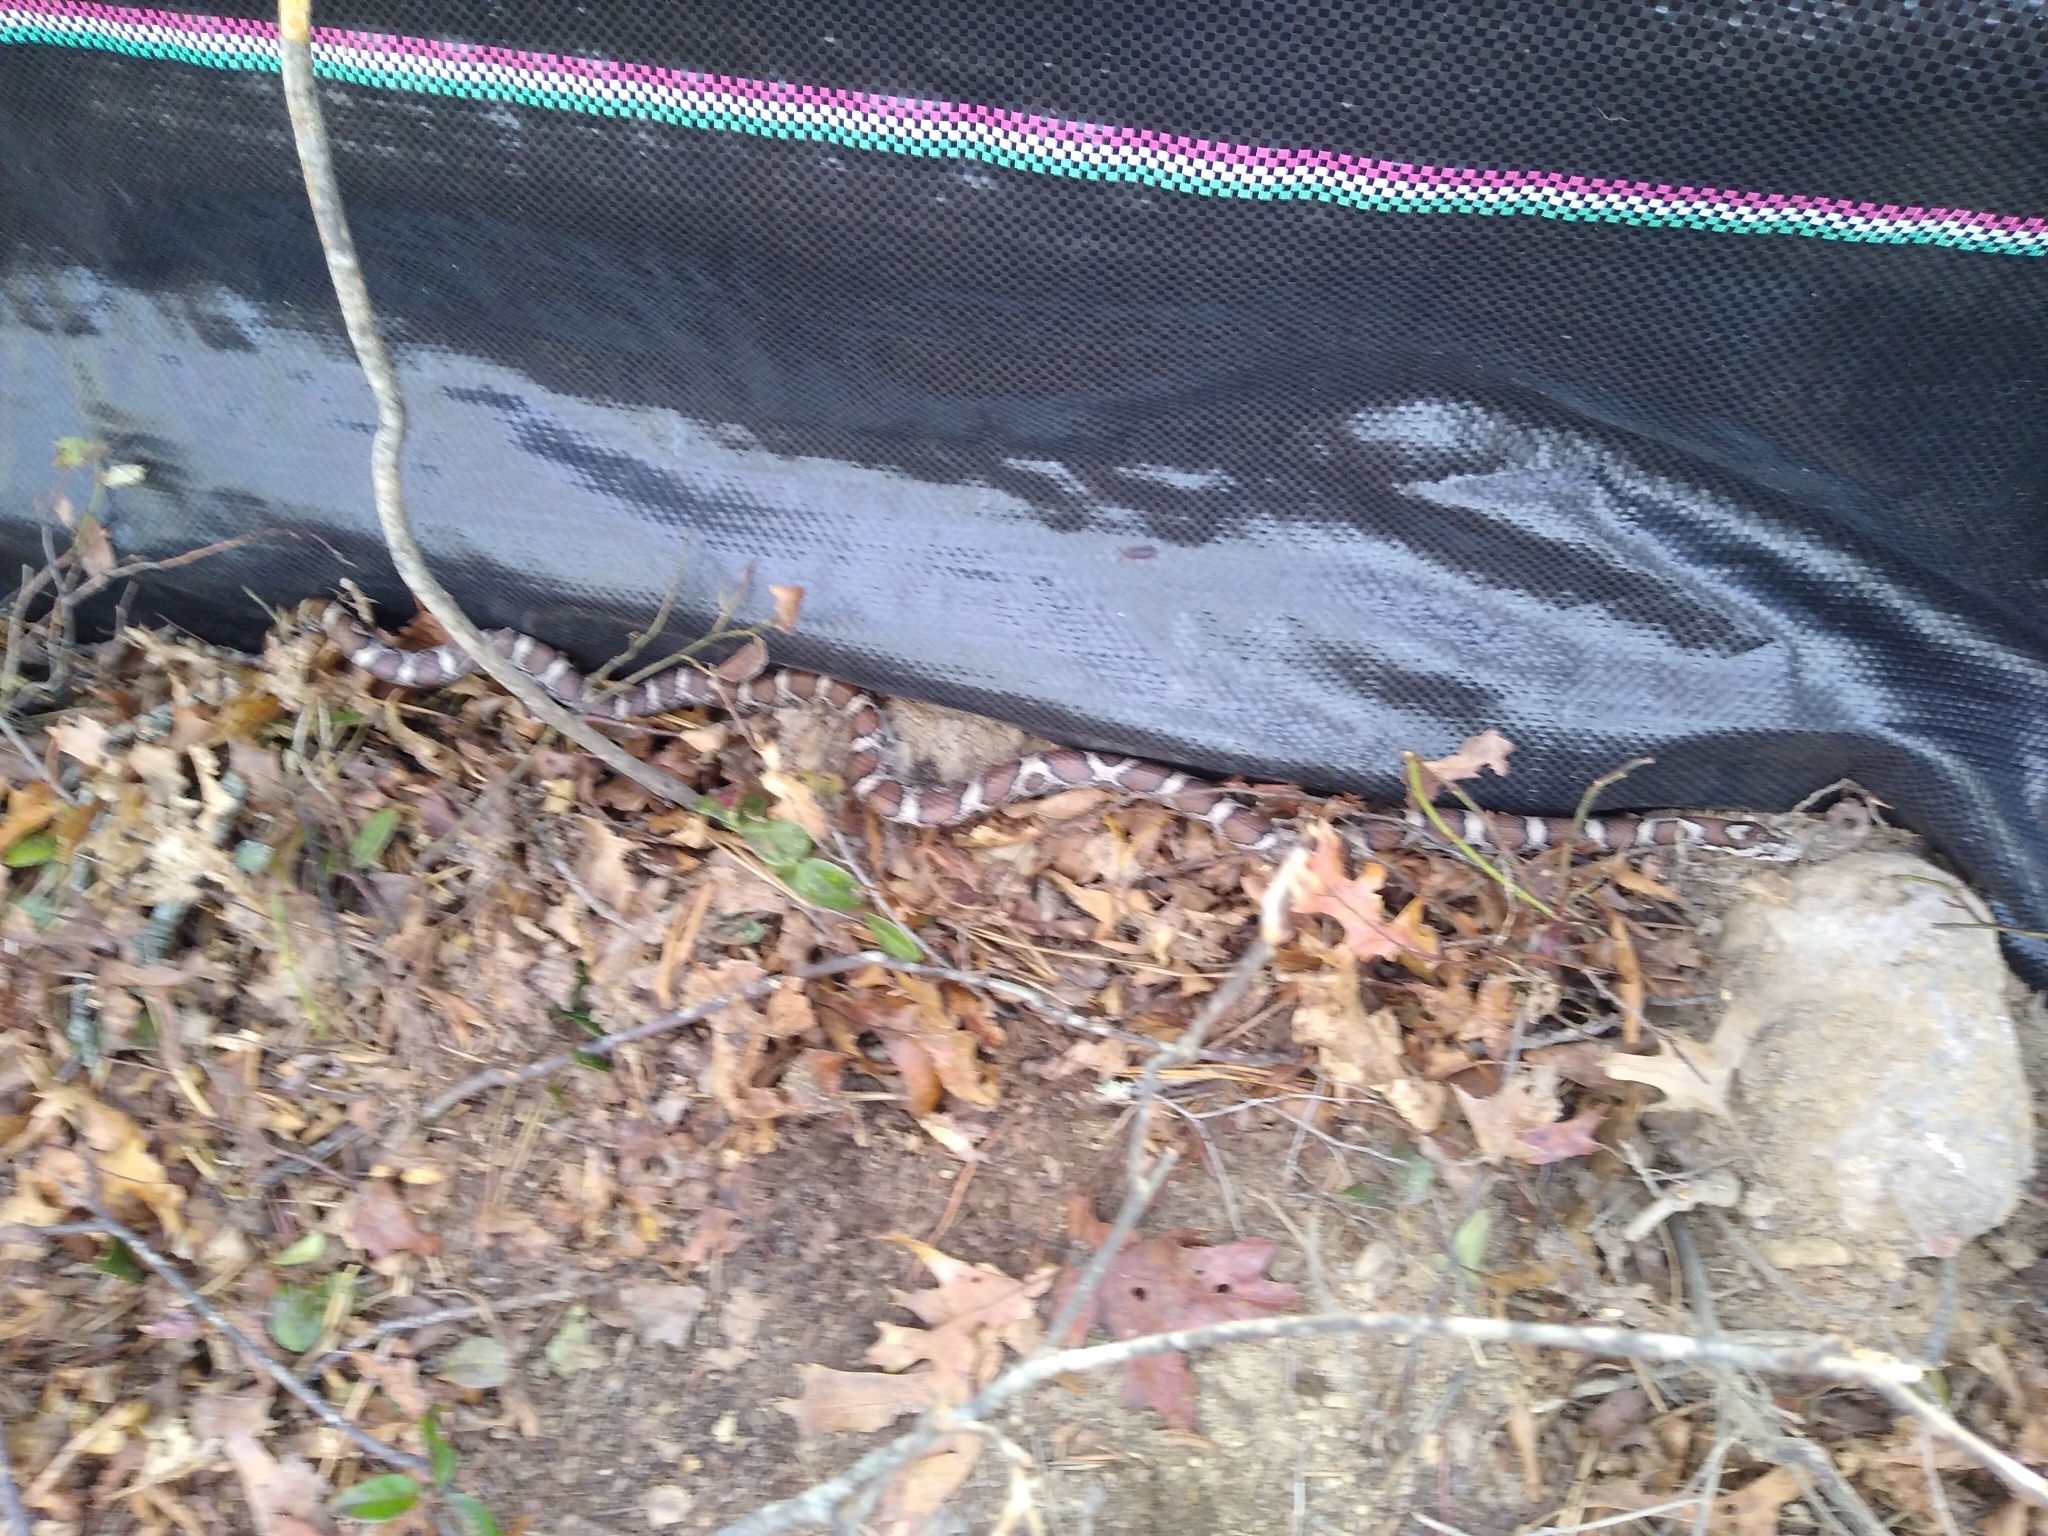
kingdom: Animalia
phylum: Chordata
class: Squamata
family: Colubridae
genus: Lampropeltis
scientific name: Lampropeltis triangulum
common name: Eastern milksnake
